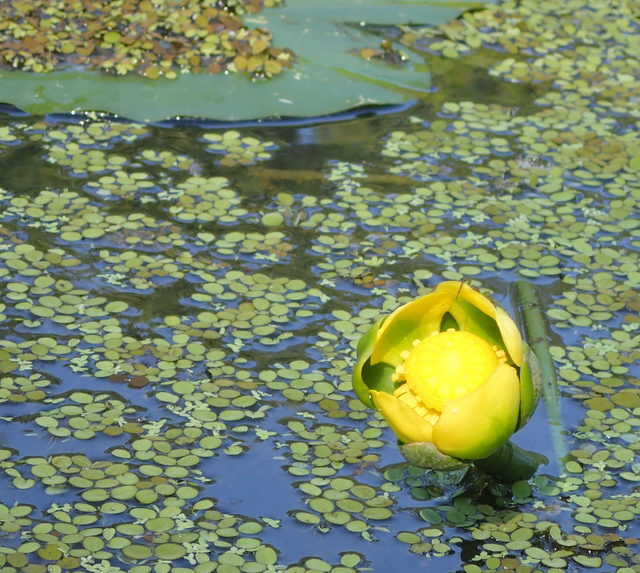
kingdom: Plantae
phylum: Tracheophyta
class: Magnoliopsida
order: Nymphaeales
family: Nymphaeaceae
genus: Nuphar
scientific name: Nuphar advena
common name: Spatter-dock
